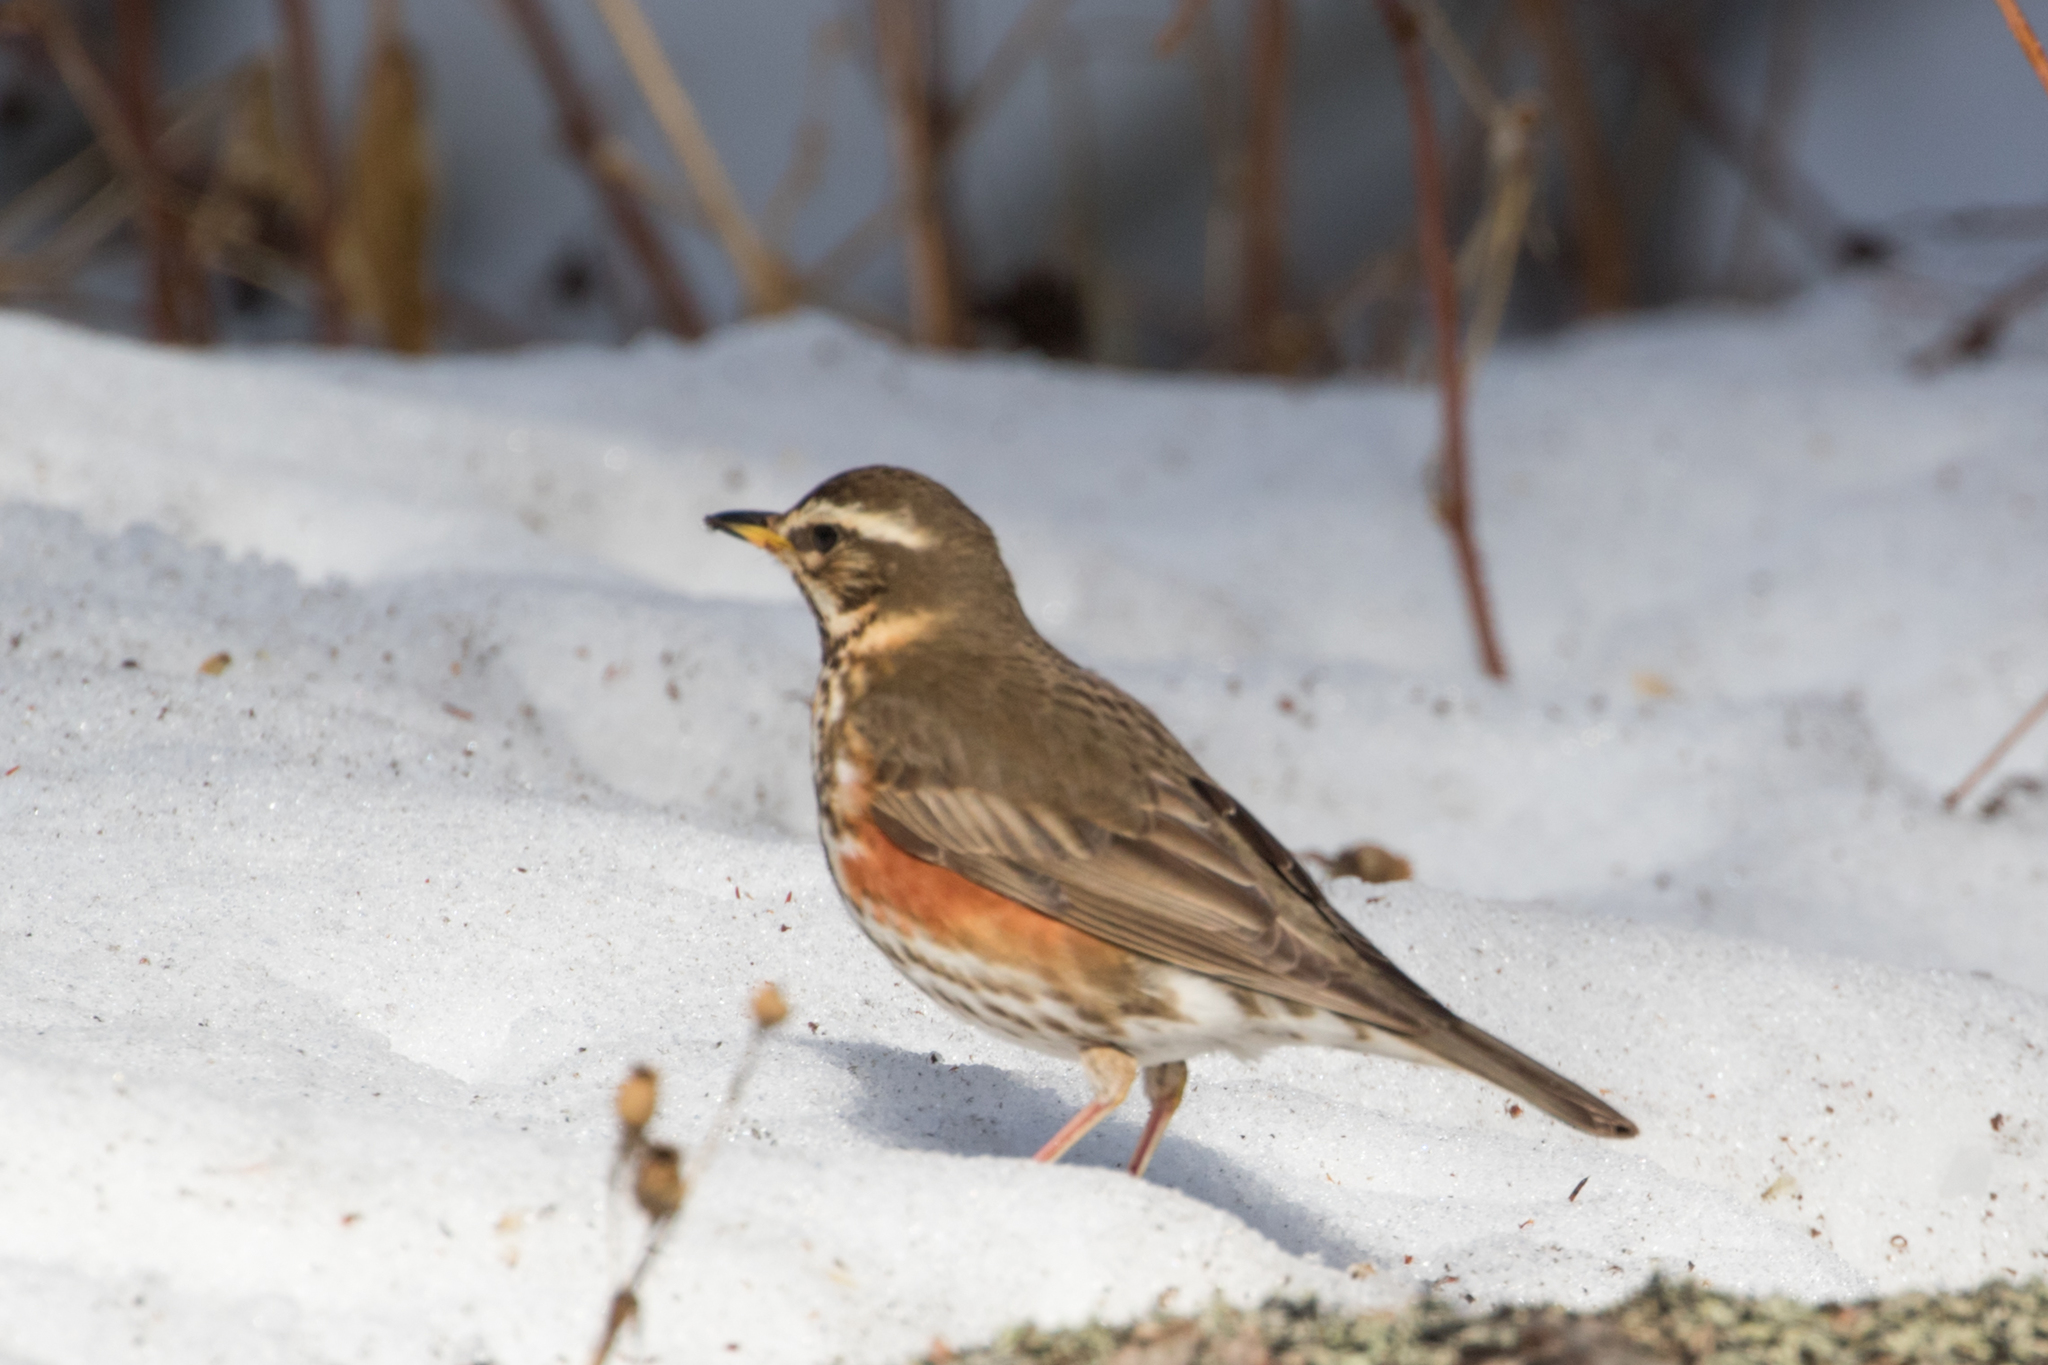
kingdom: Animalia
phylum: Chordata
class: Aves
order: Passeriformes
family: Turdidae
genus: Turdus
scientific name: Turdus iliacus
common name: Redwing
